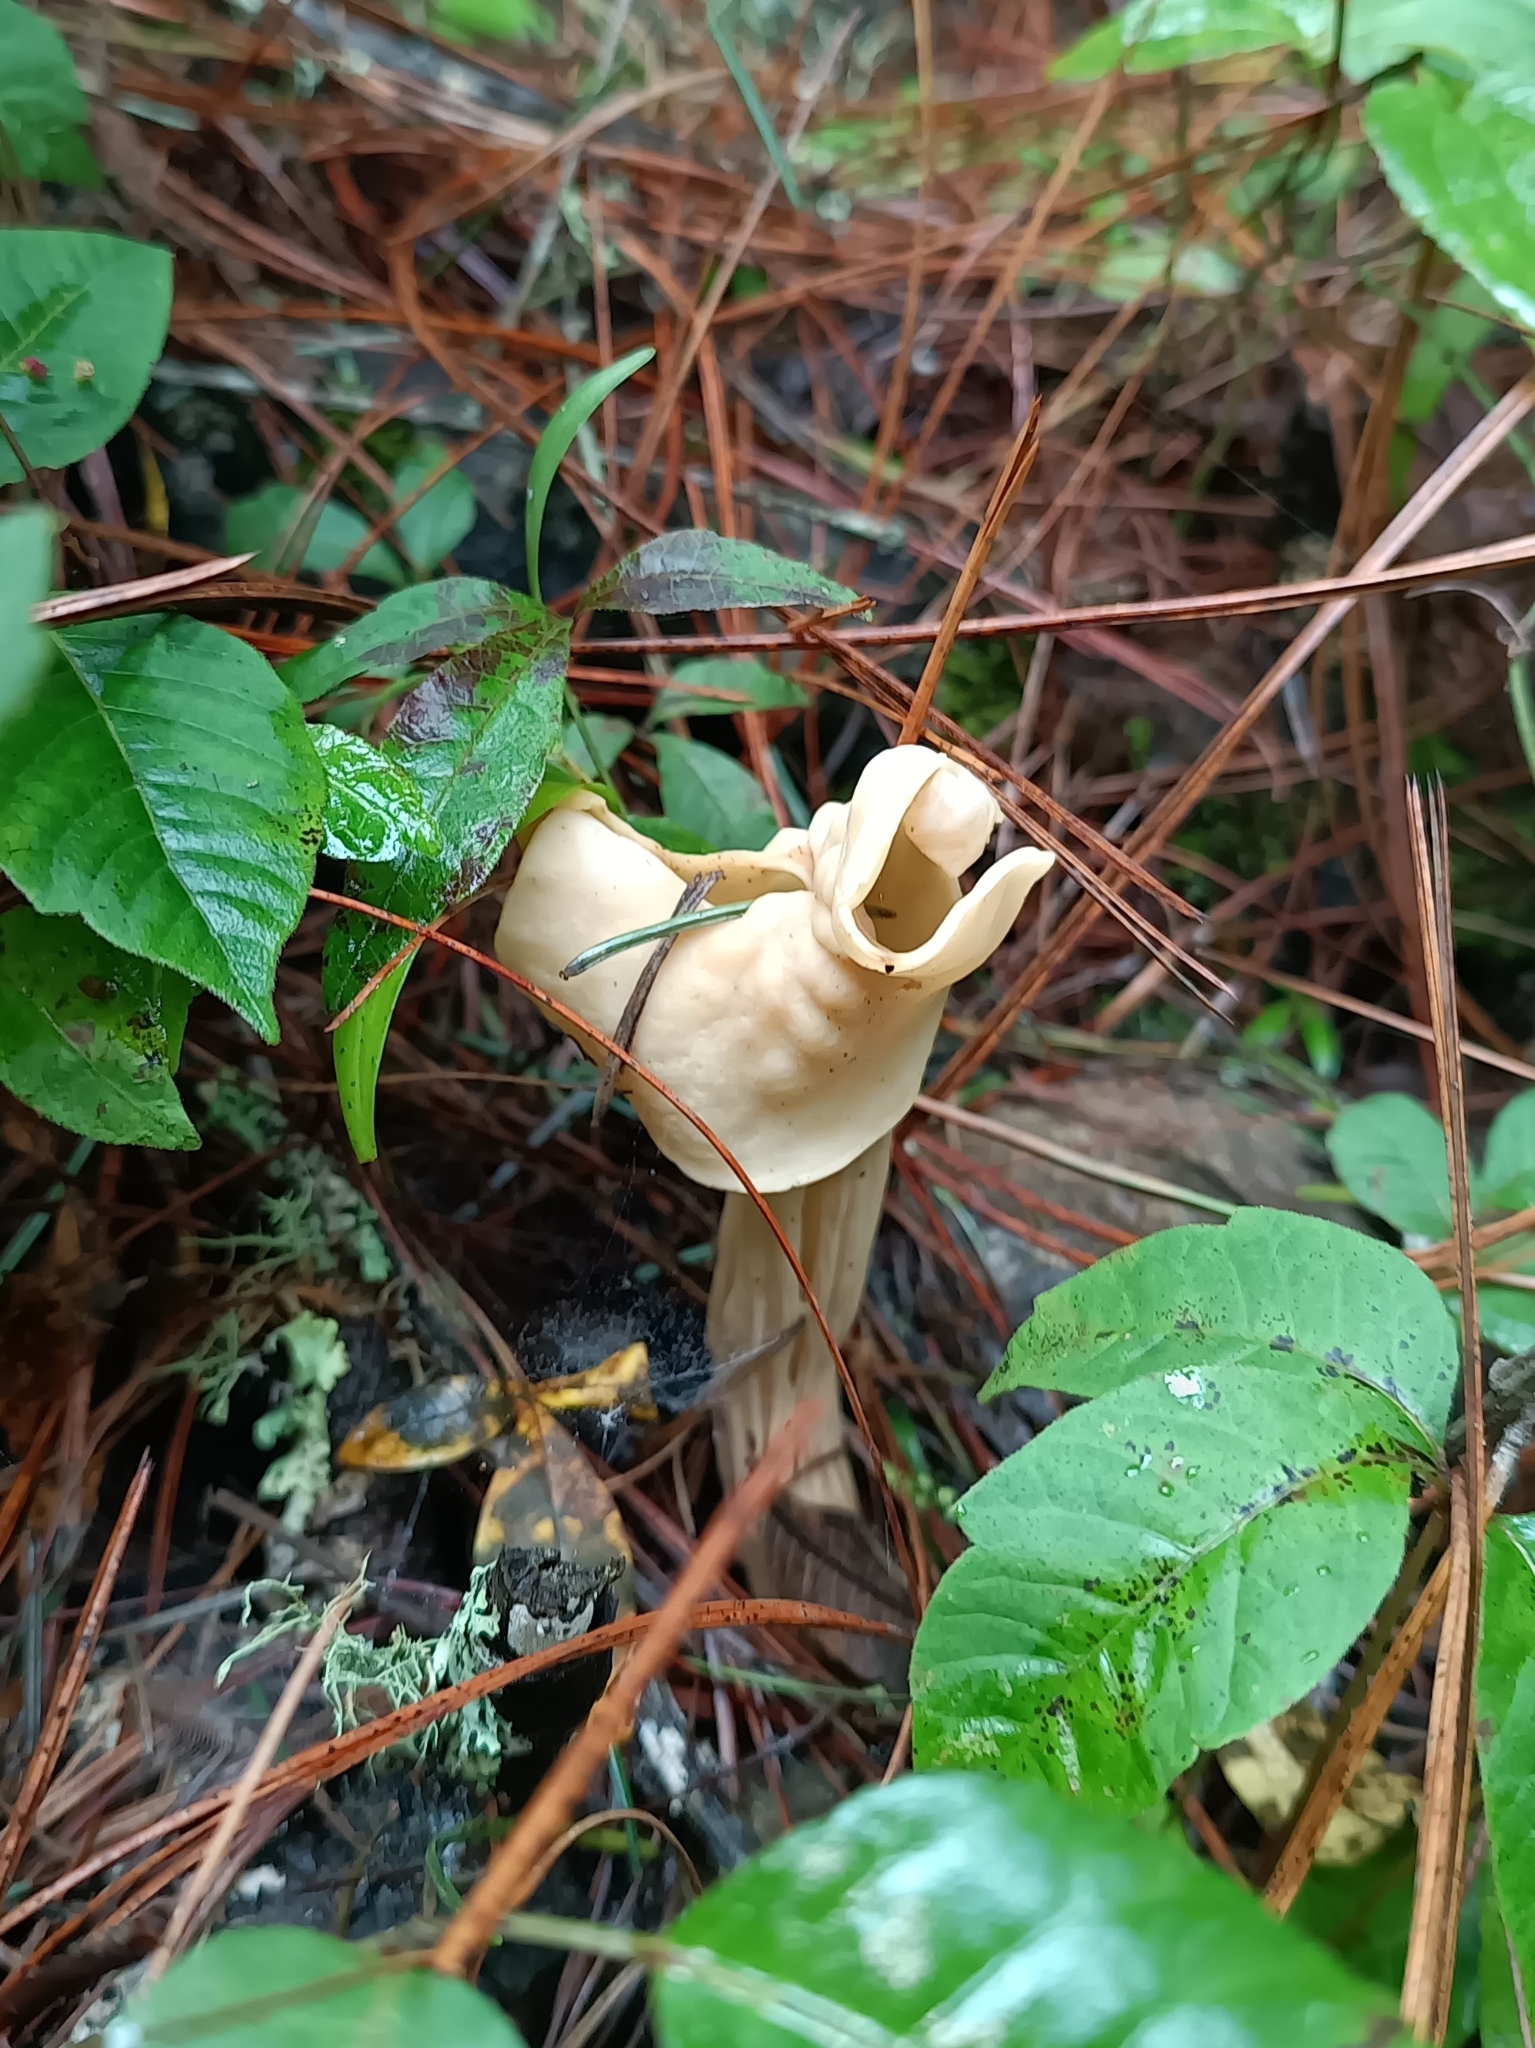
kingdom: Fungi
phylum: Ascomycota
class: Pezizomycetes
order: Pezizales
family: Helvellaceae
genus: Helvella
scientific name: Helvella crispa
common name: White saddle
